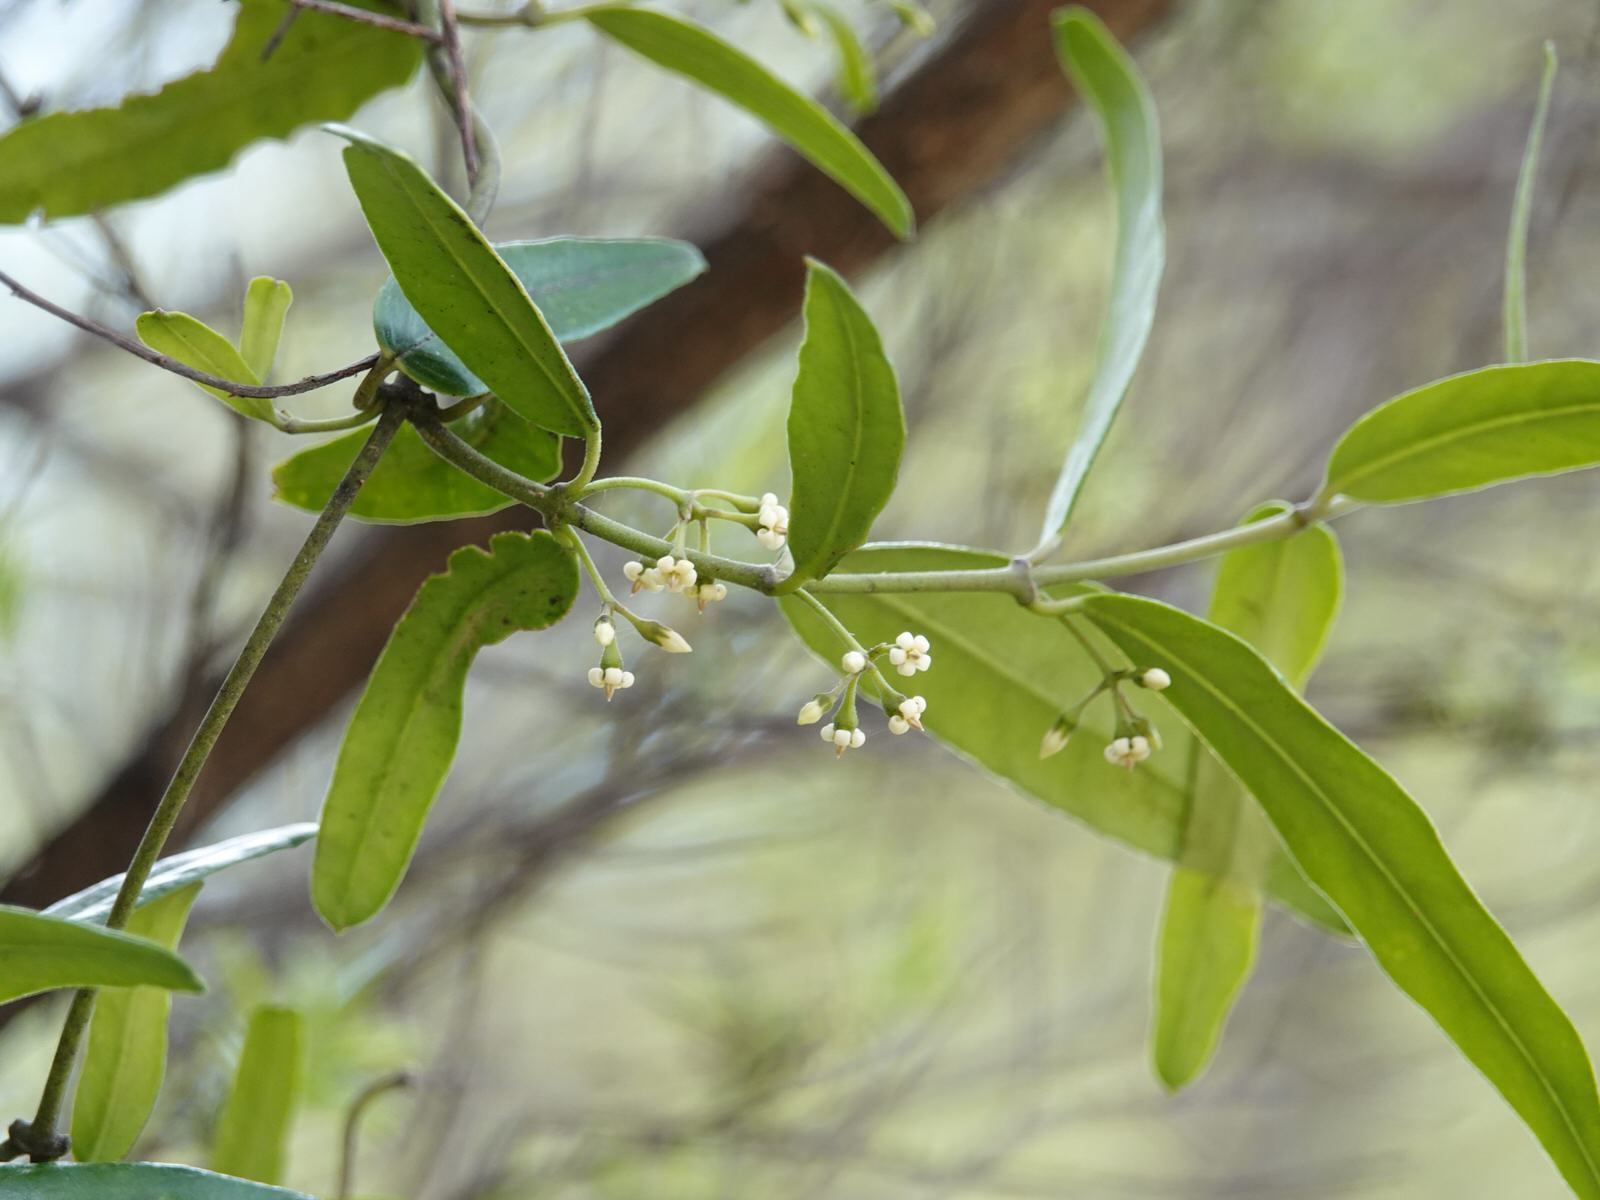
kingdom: Plantae
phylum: Tracheophyta
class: Magnoliopsida
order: Gentianales
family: Apocynaceae
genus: Parsonsia
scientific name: Parsonsia heterophylla
